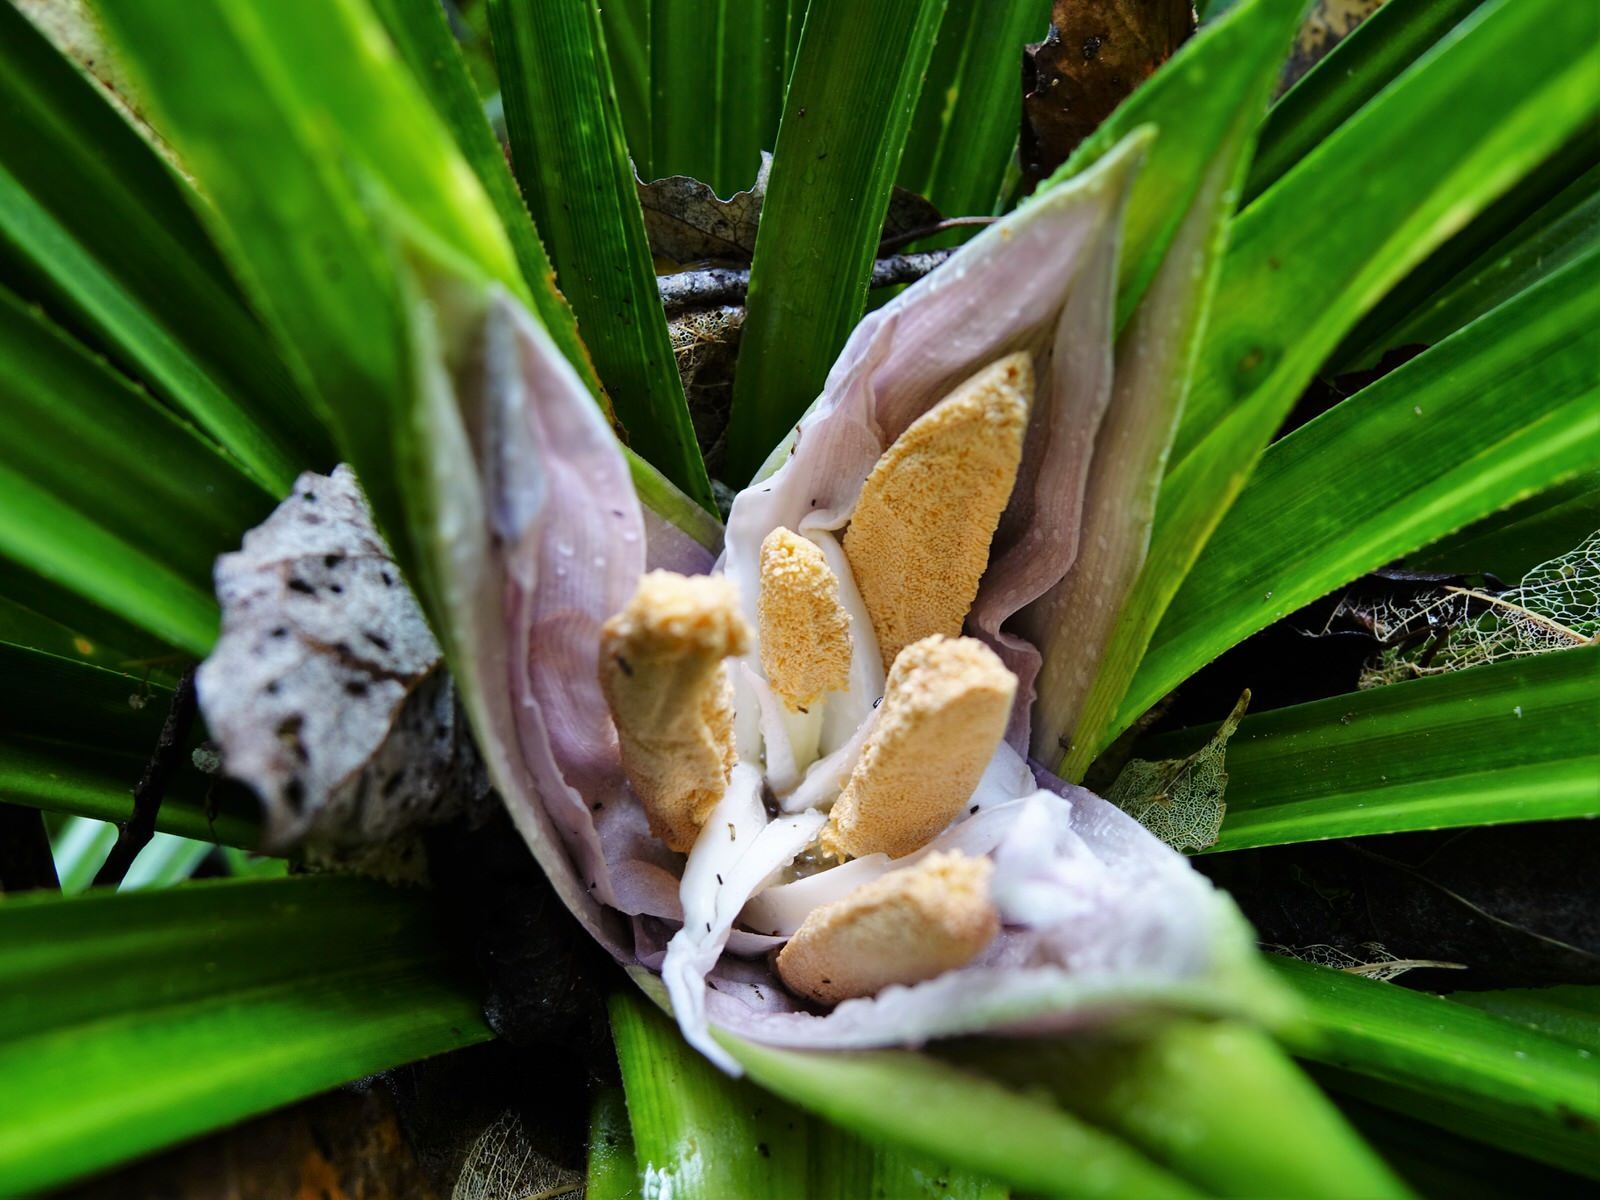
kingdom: Plantae
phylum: Tracheophyta
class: Liliopsida
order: Pandanales
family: Pandanaceae
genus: Freycinetia
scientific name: Freycinetia banksii
